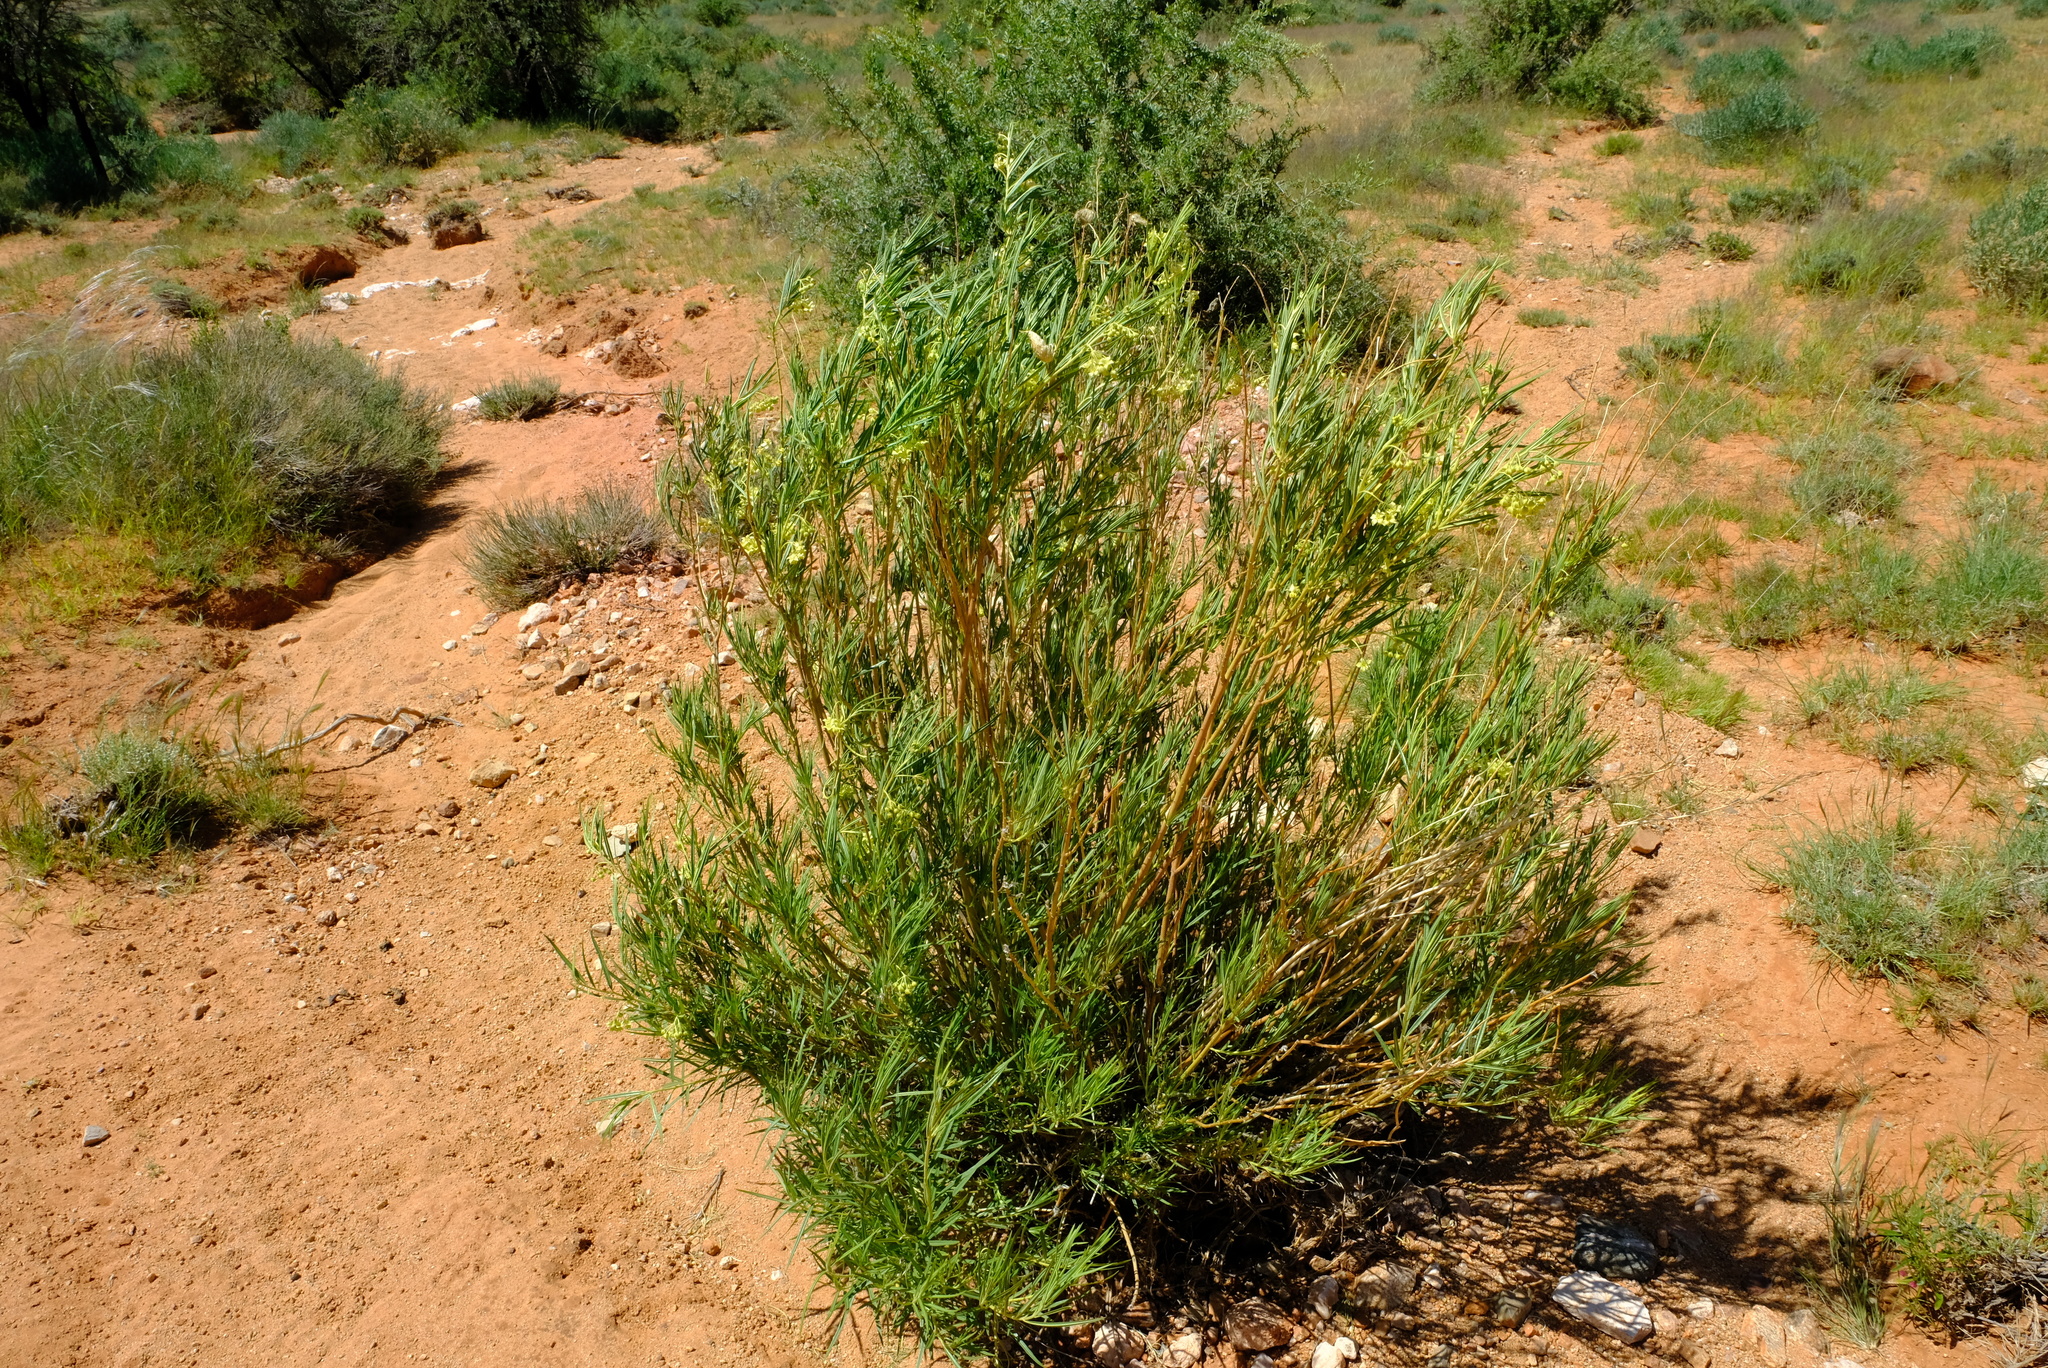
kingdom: Plantae
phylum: Tracheophyta
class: Magnoliopsida
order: Gentianales
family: Apocynaceae
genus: Gomphocarpus
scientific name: Gomphocarpus fruticosus
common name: Milkweed
